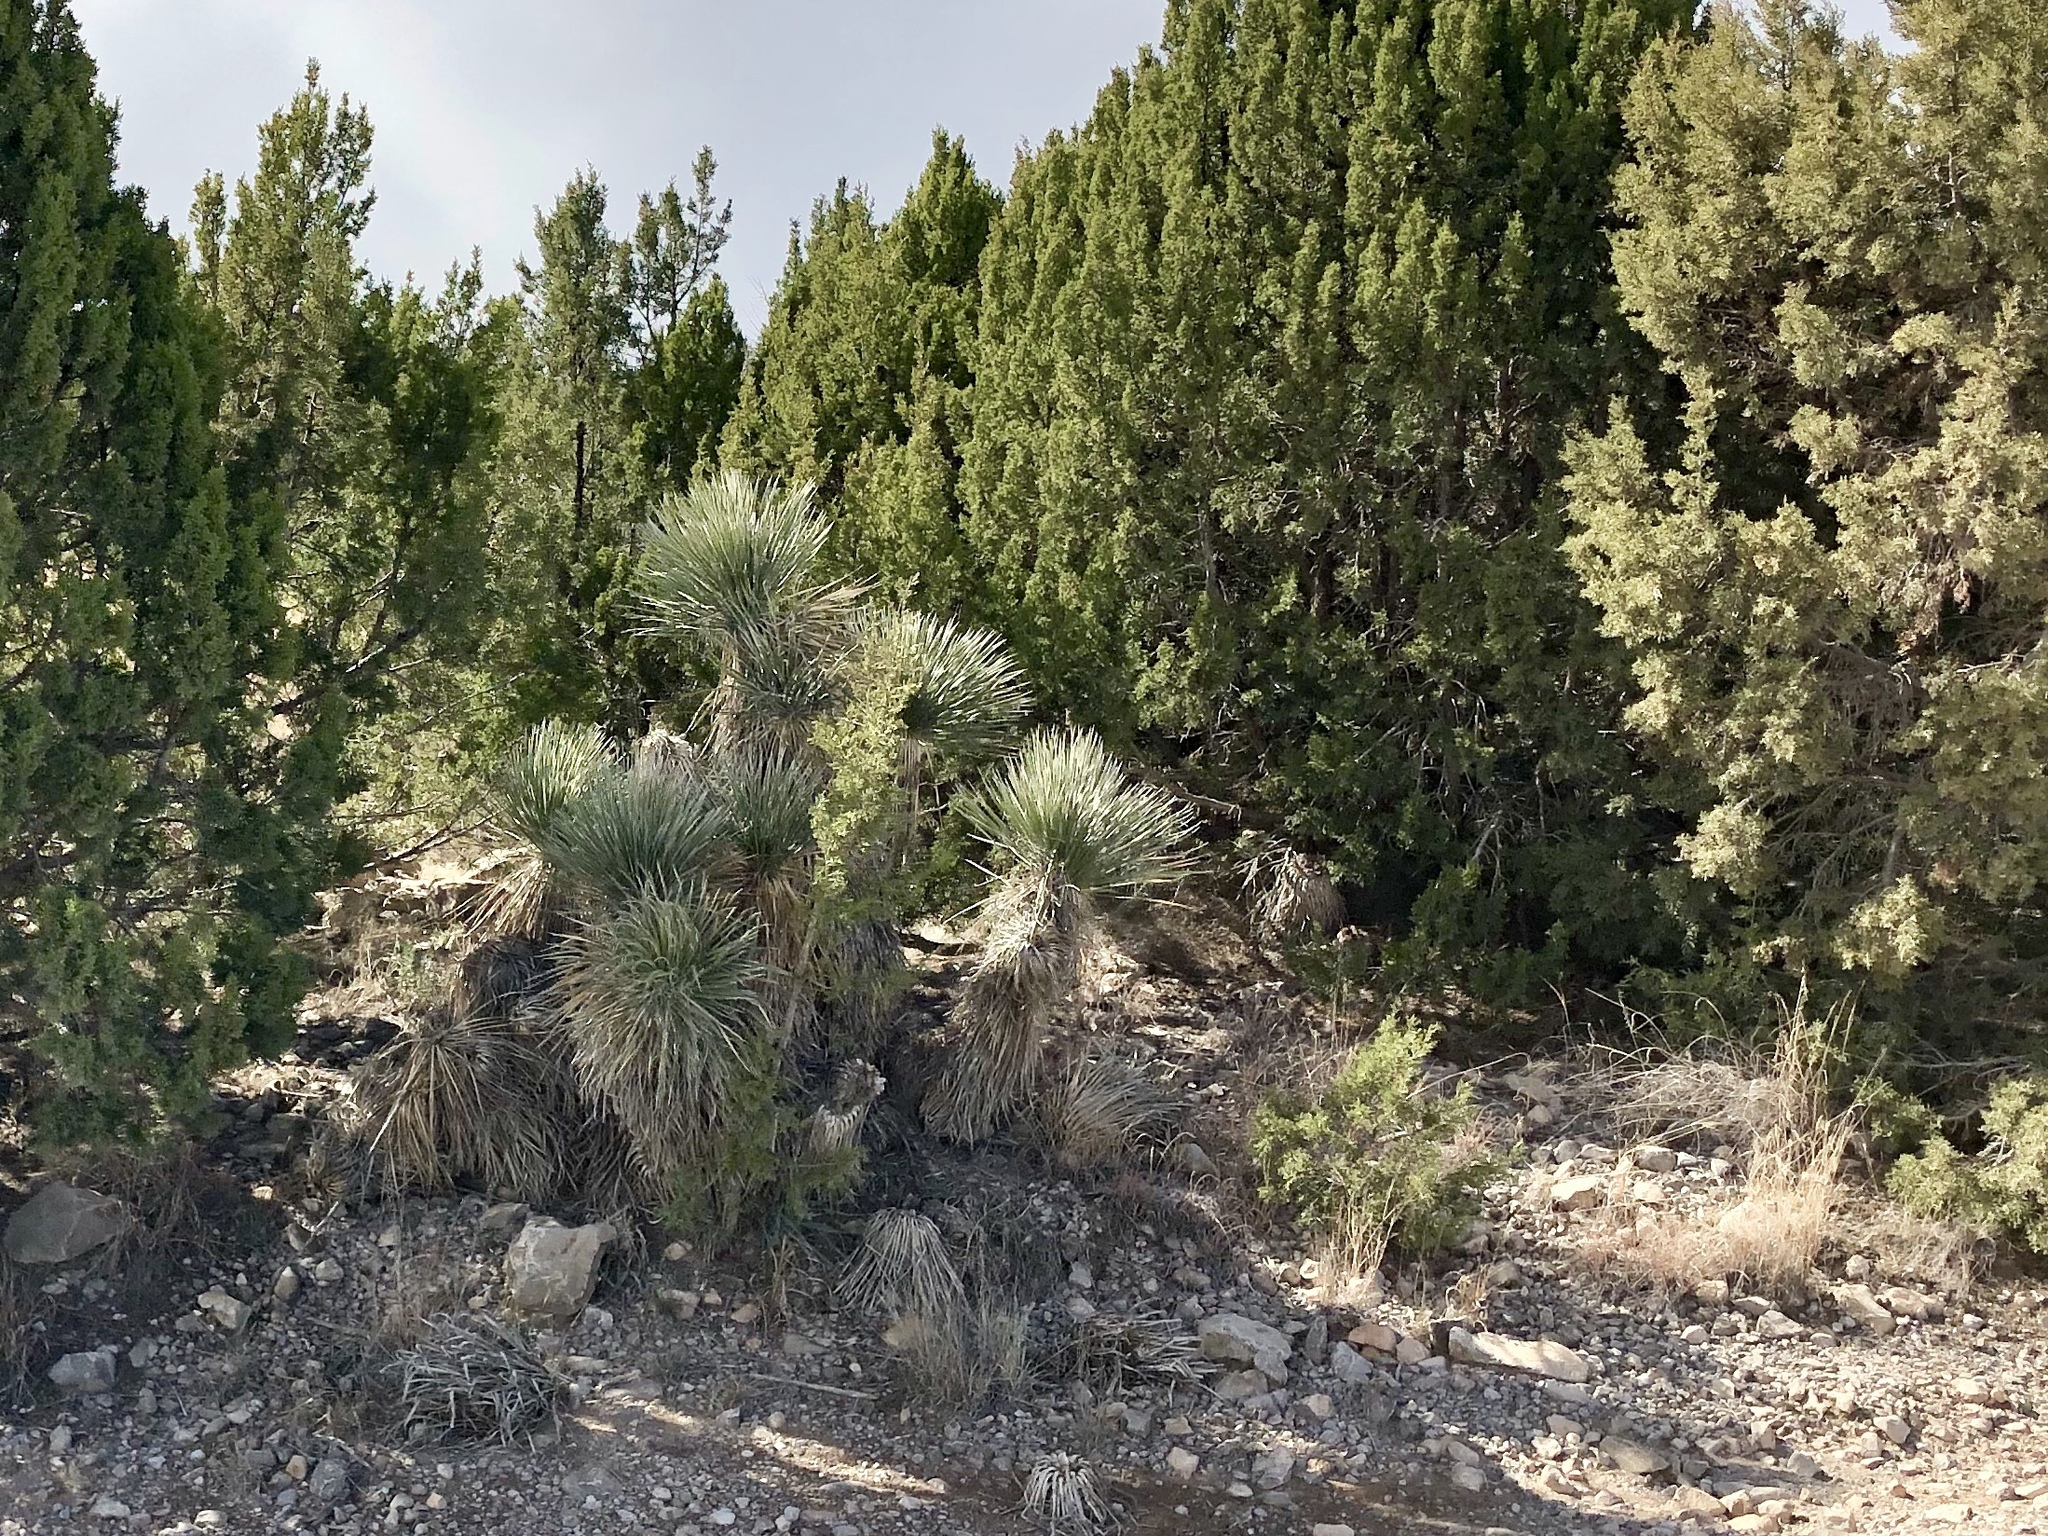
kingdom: Plantae
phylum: Tracheophyta
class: Liliopsida
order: Asparagales
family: Asparagaceae
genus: Yucca
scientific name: Yucca elata
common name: Palmella
